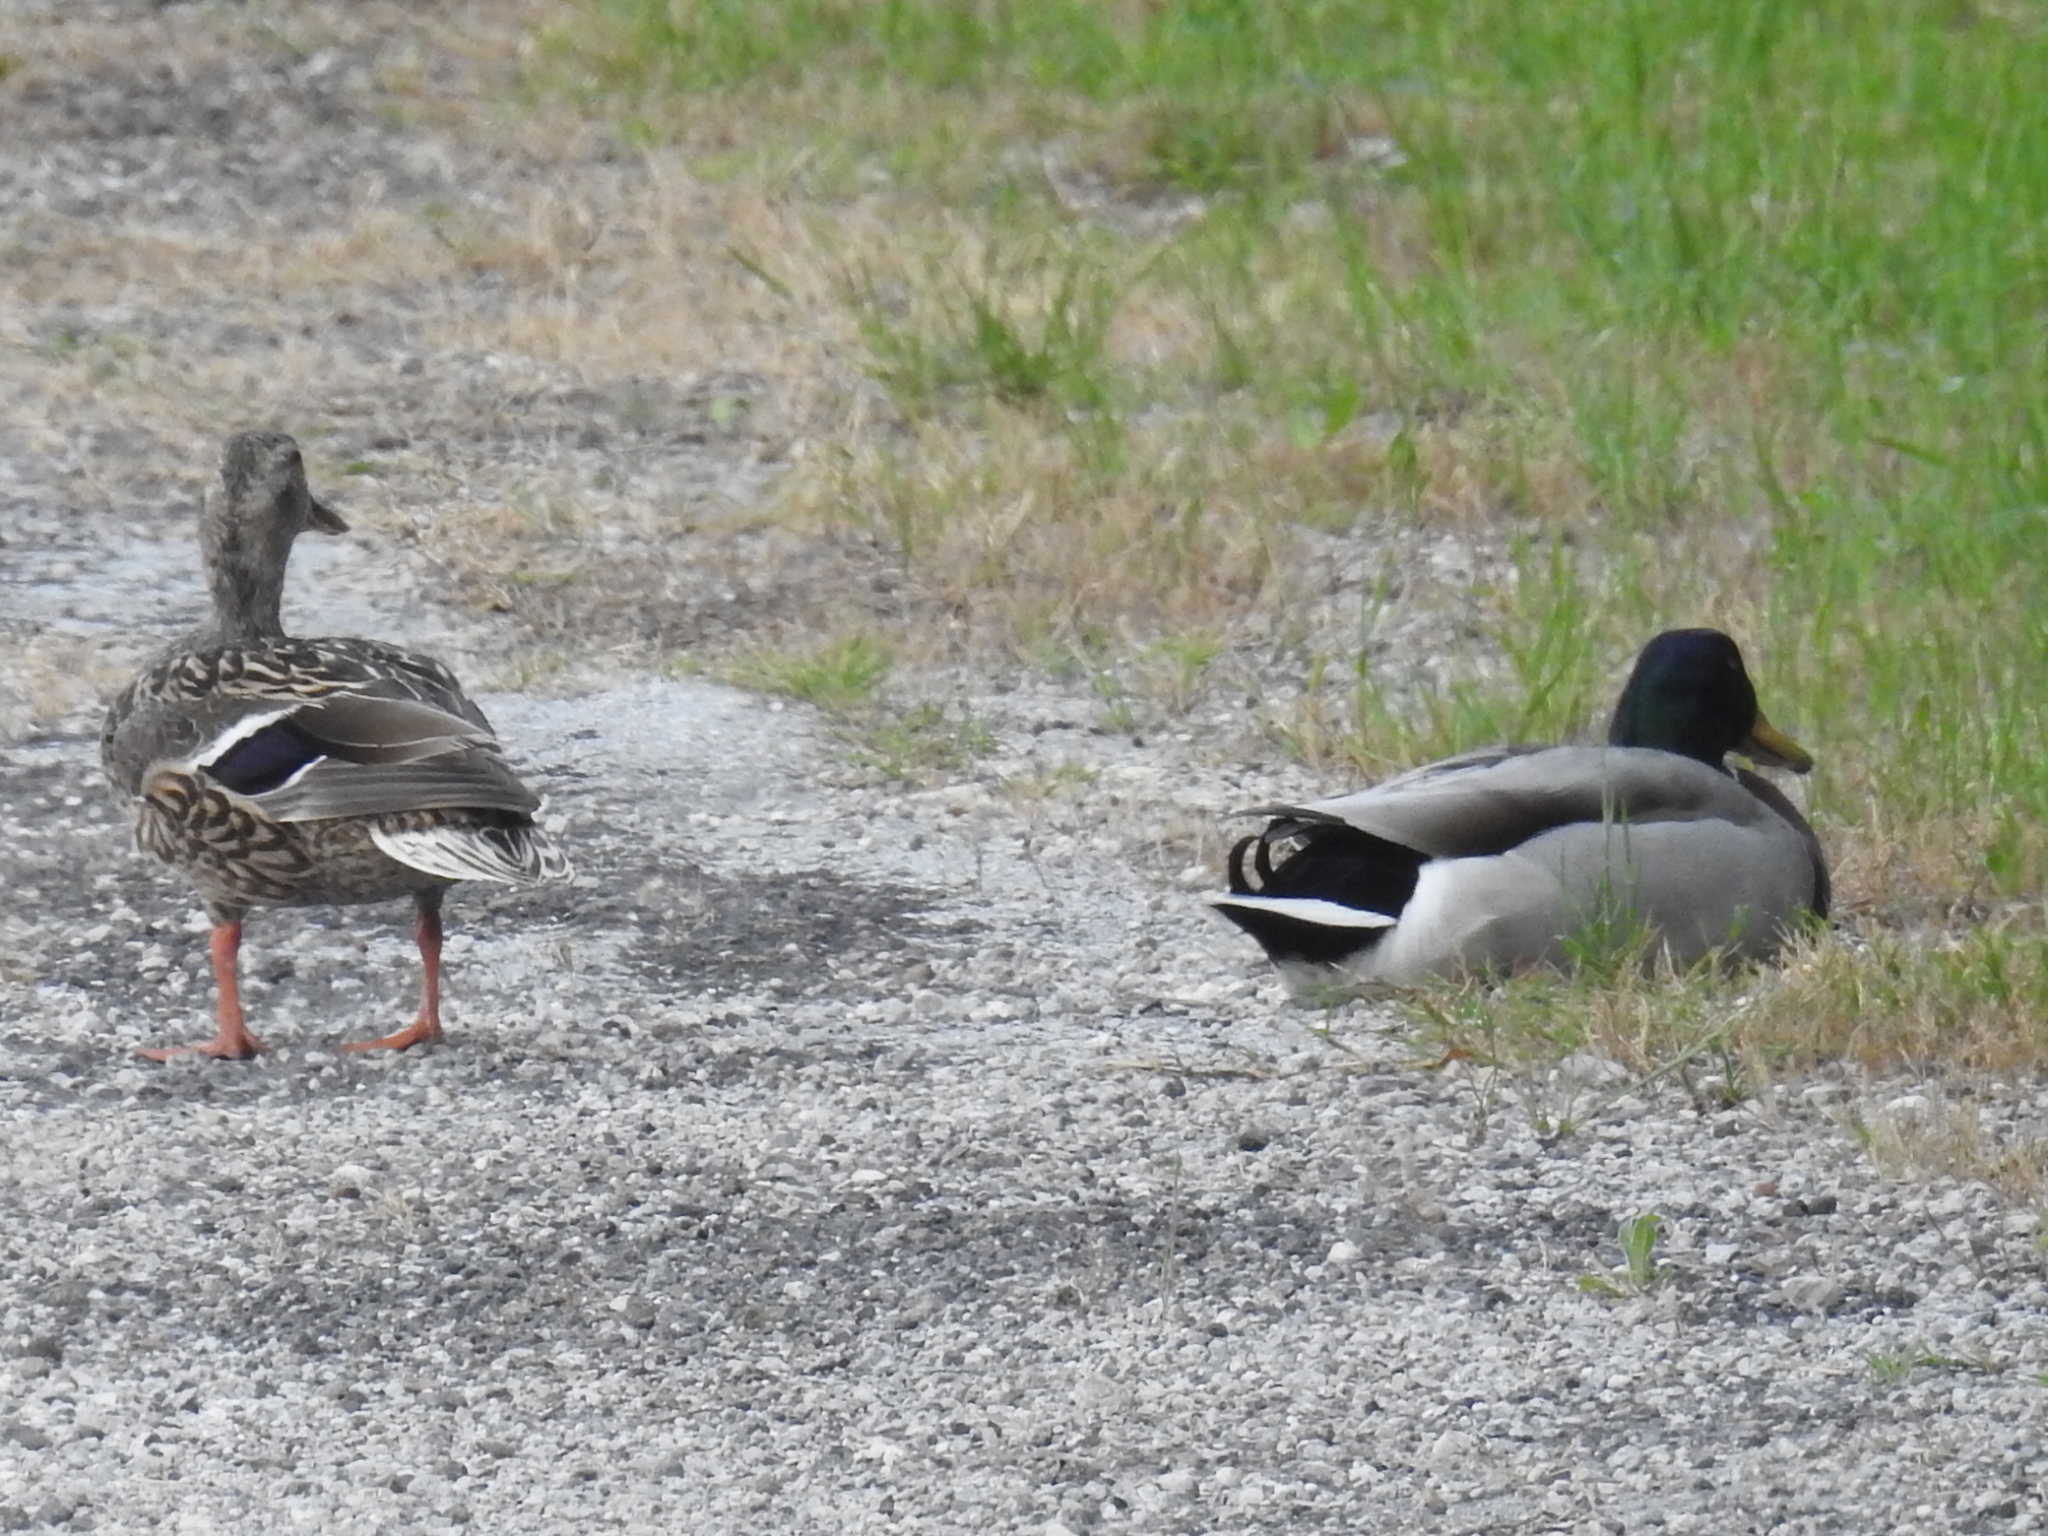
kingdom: Animalia
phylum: Chordata
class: Aves
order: Anseriformes
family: Anatidae
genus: Anas
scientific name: Anas platyrhynchos
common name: Mallard
